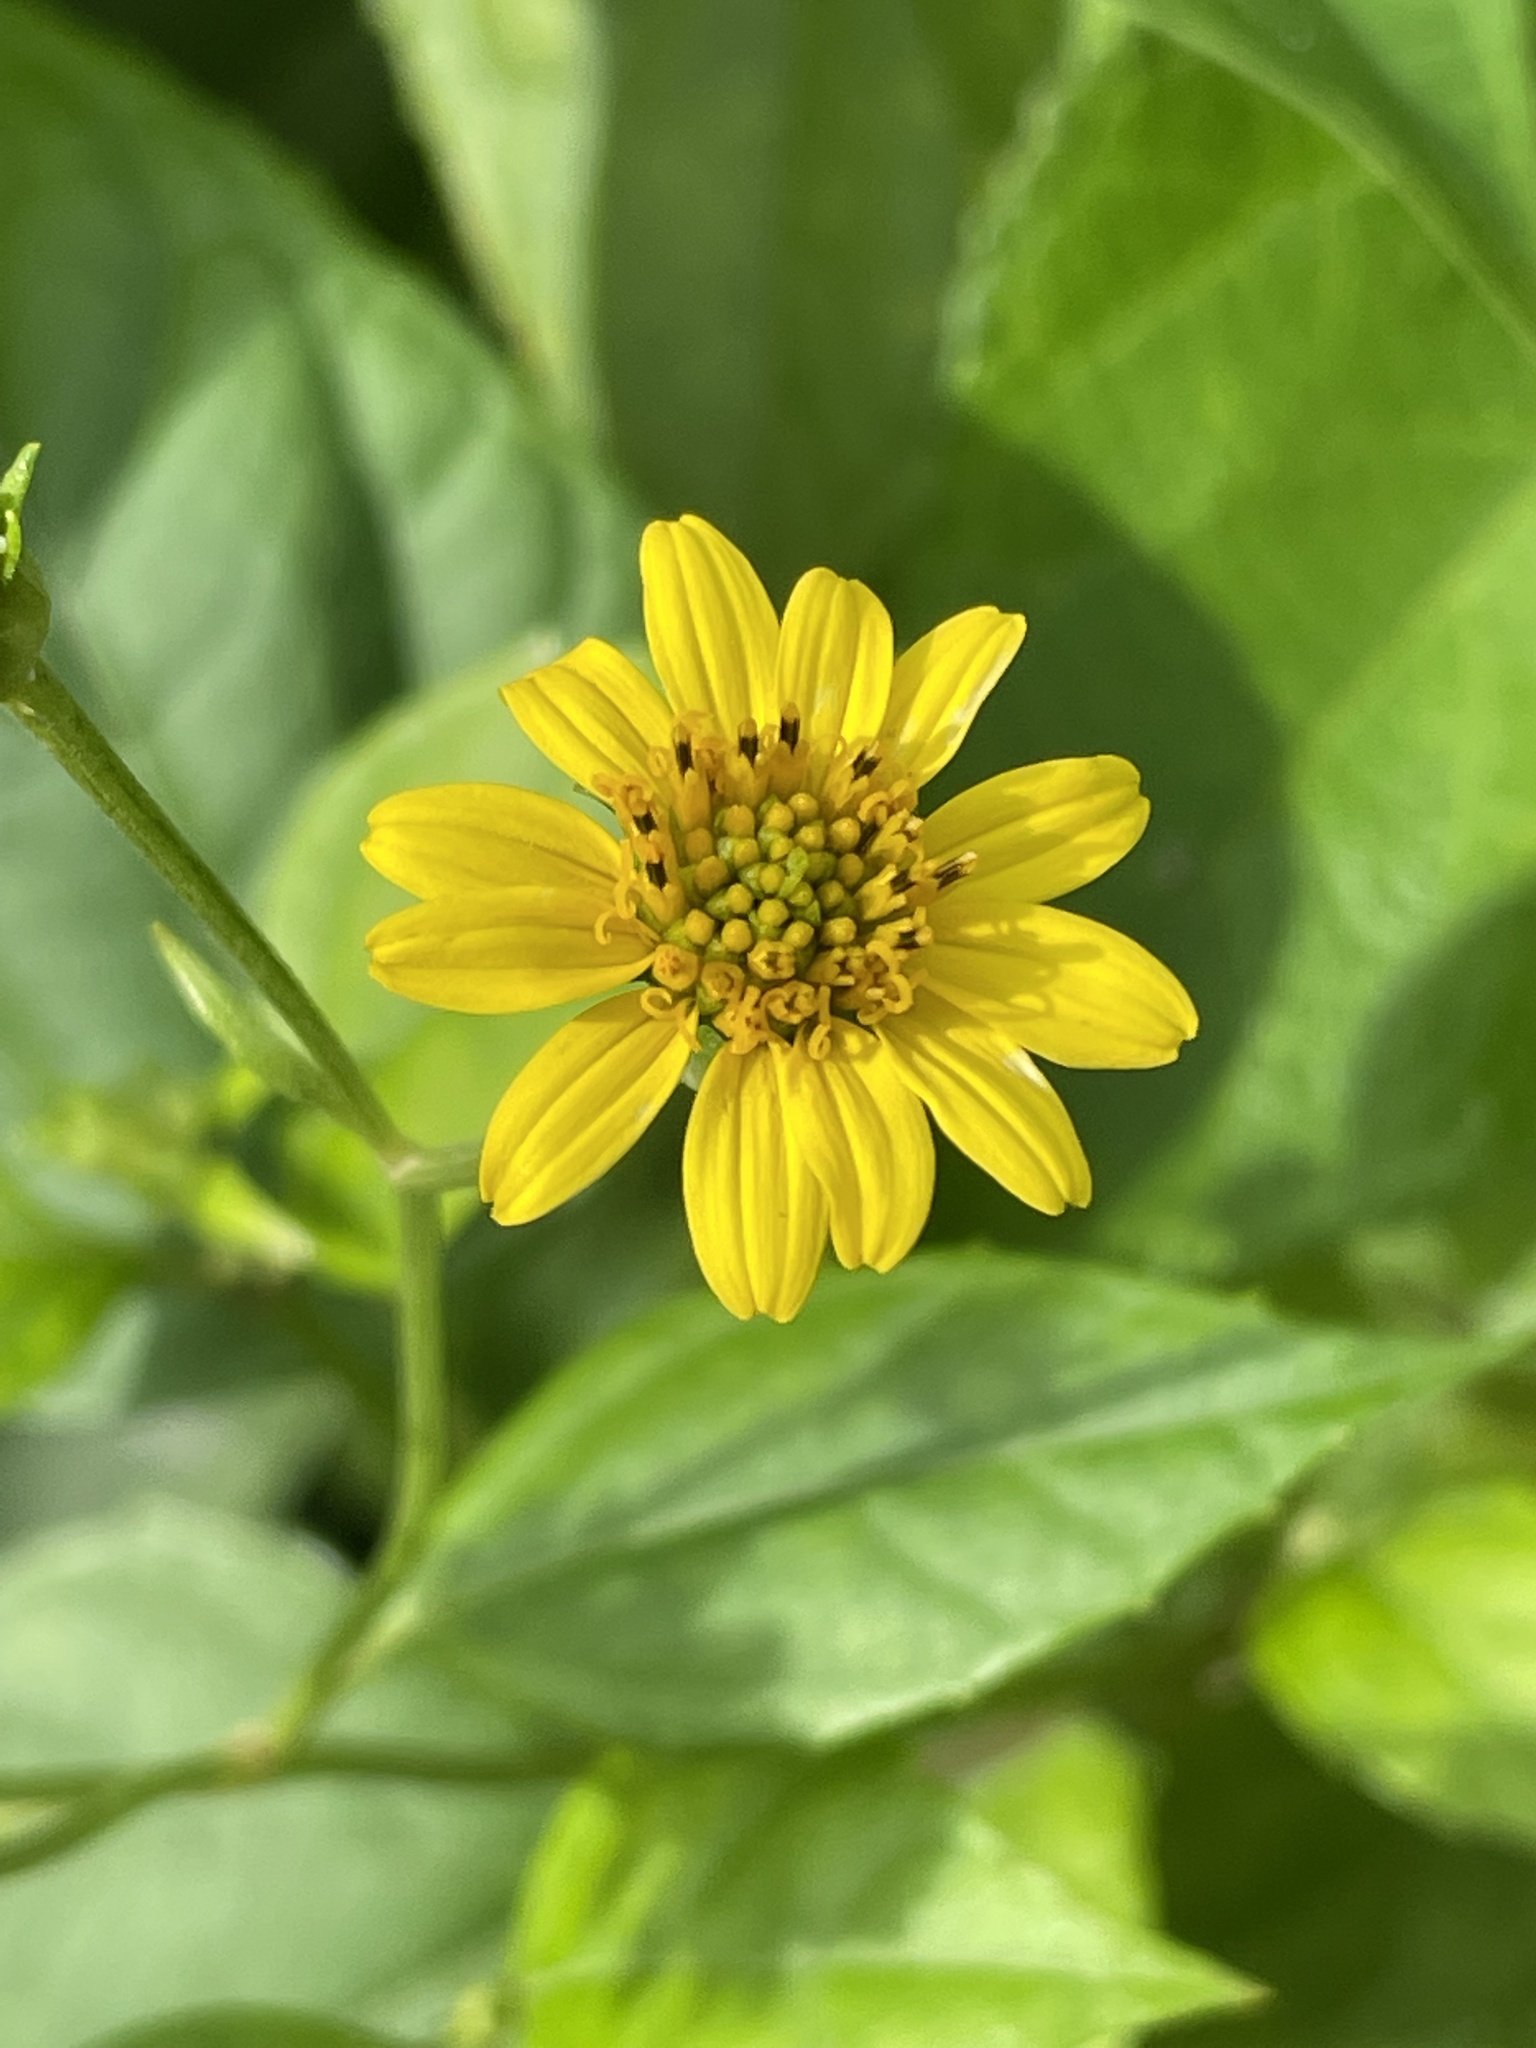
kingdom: Plantae
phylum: Tracheophyta
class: Magnoliopsida
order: Asterales
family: Asteraceae
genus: Sphagneticola
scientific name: Sphagneticola trilobata
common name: Bay biscayne creeping-oxeye
